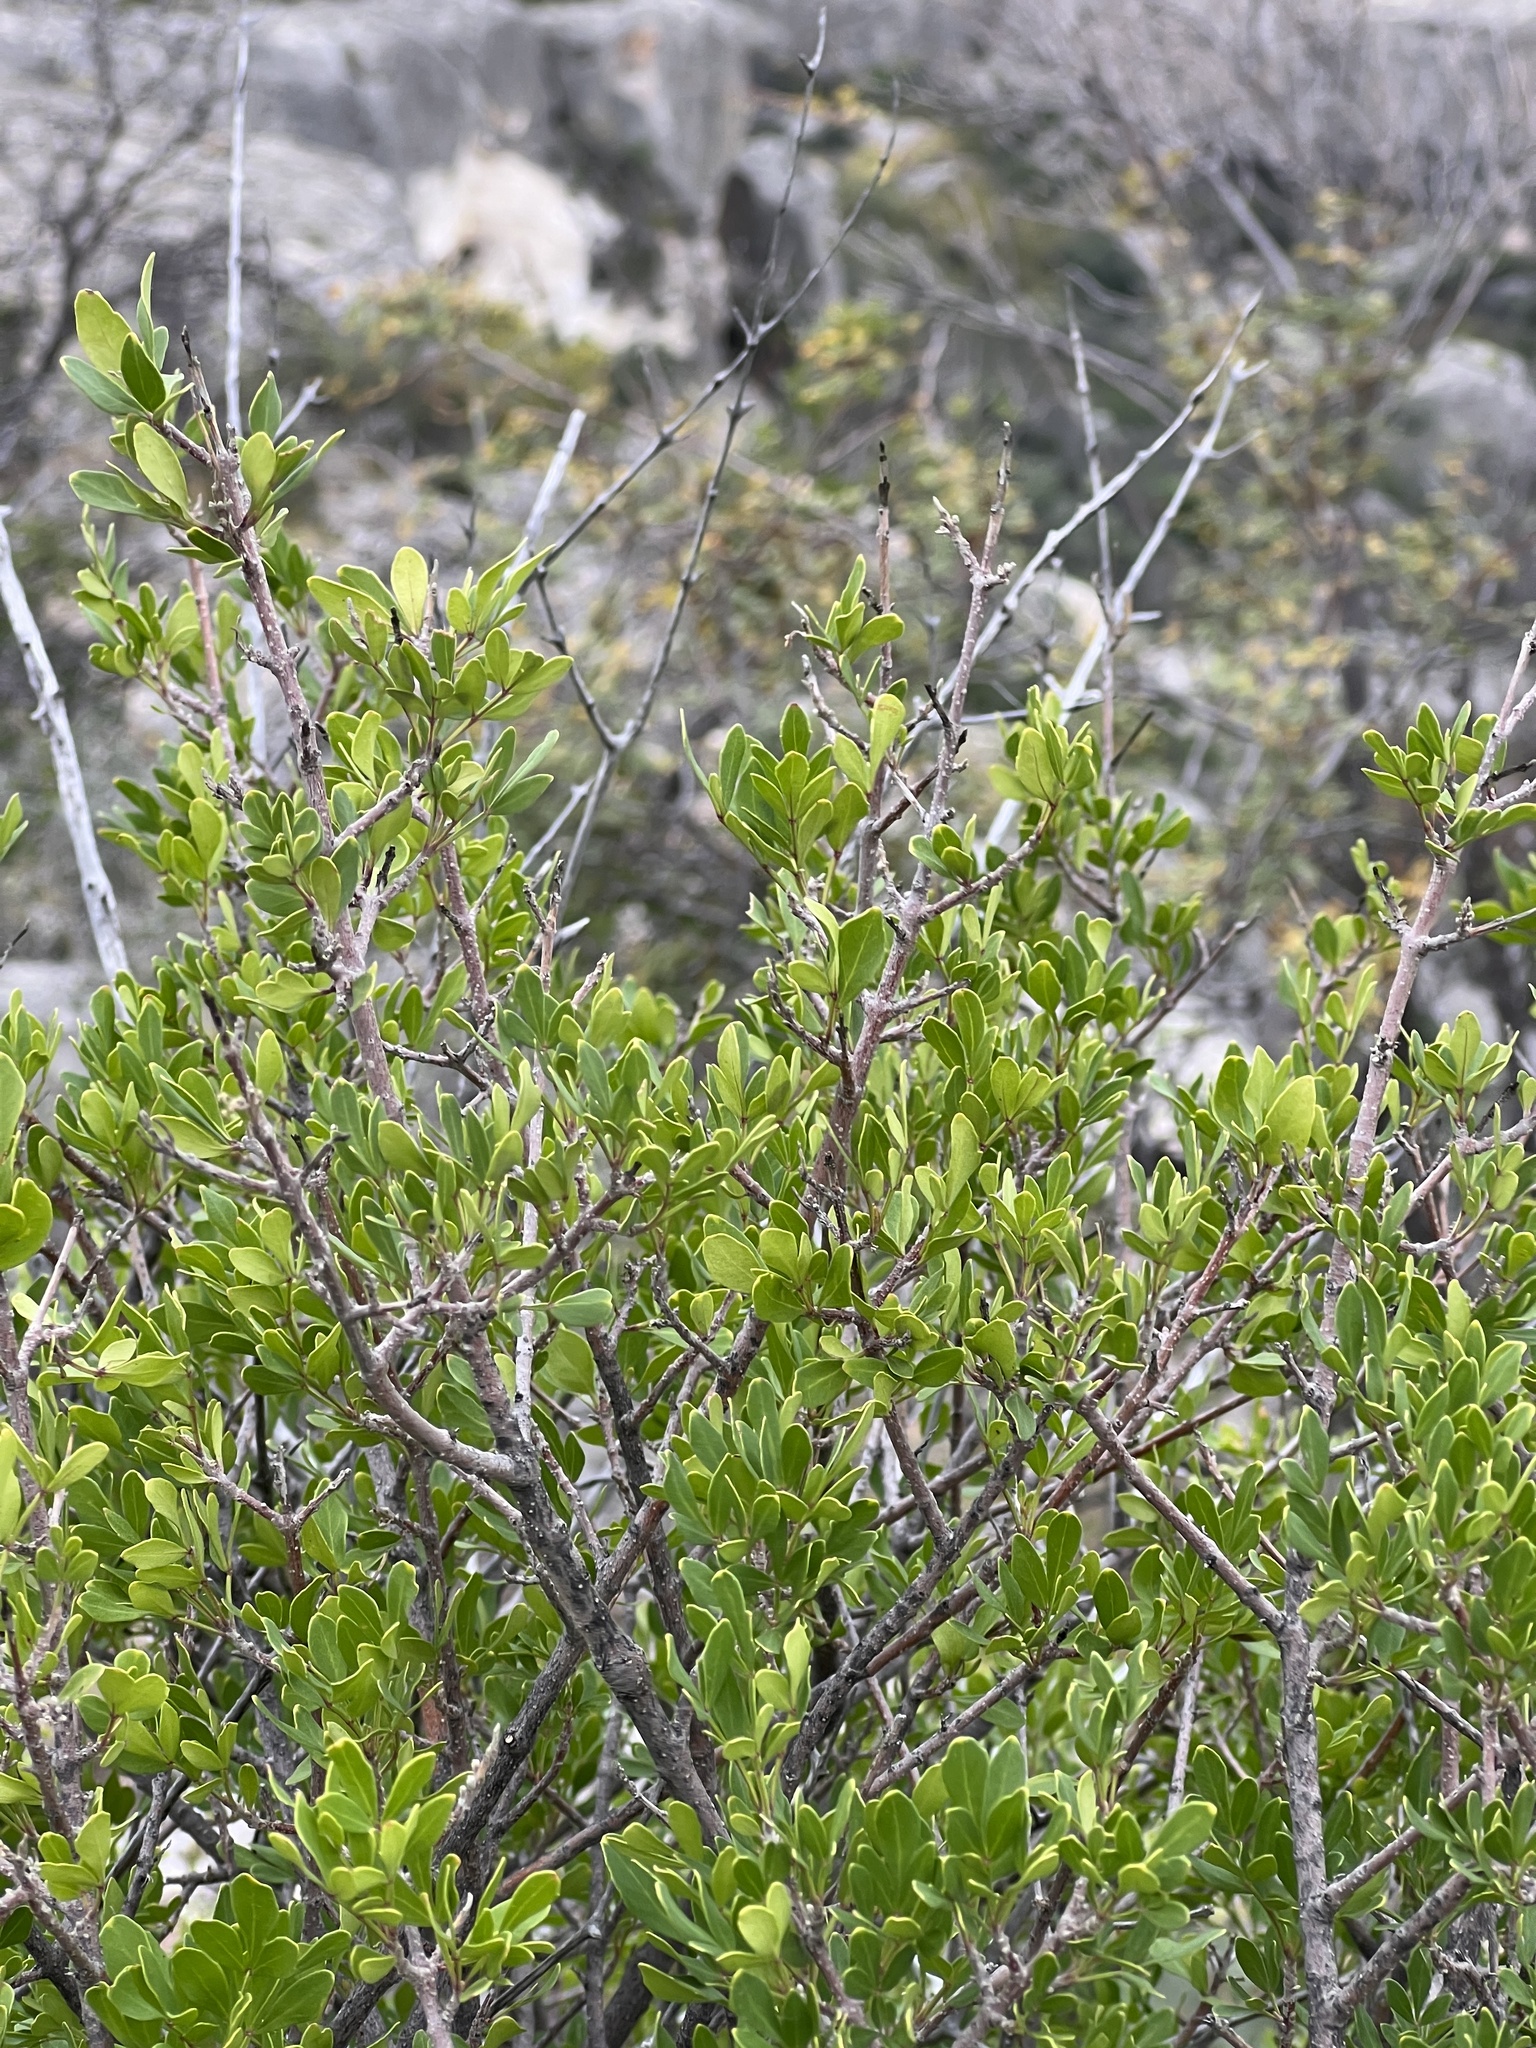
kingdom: Plantae
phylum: Tracheophyta
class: Magnoliopsida
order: Celastrales
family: Celastraceae
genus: Schaefferia
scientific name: Schaefferia cuneifolia
